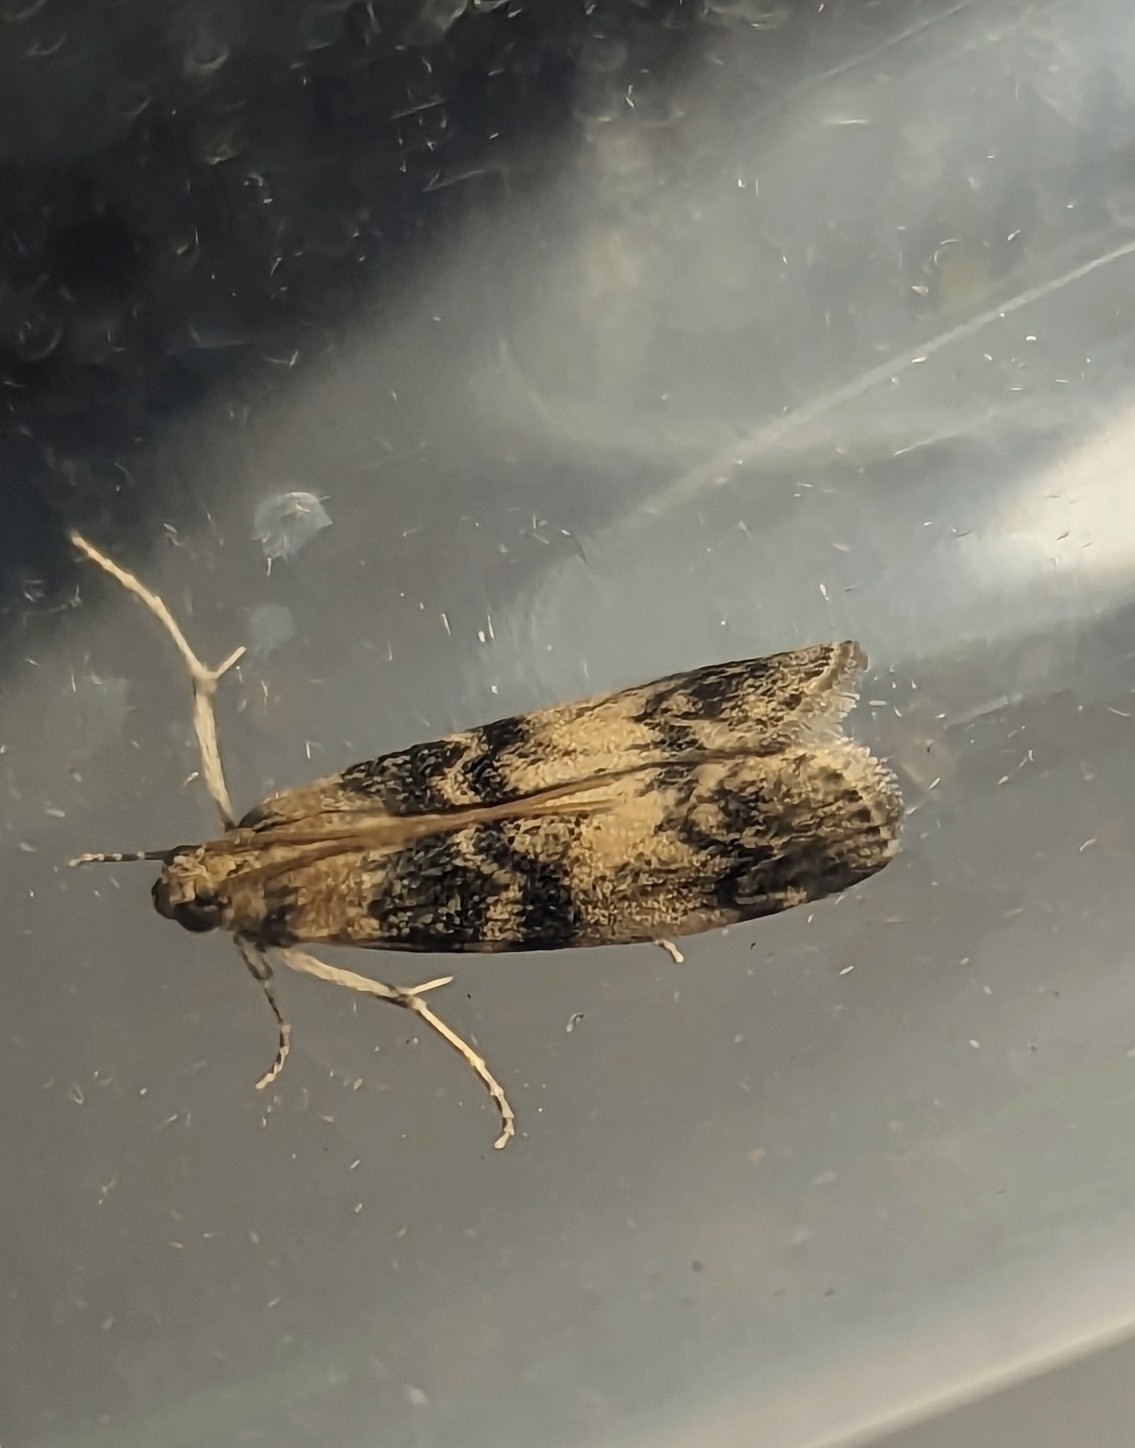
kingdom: Animalia
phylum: Arthropoda
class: Insecta
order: Lepidoptera
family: Pyralidae
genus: Euzophera
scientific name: Euzophera pinguis
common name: Ash-bark knot-horn
